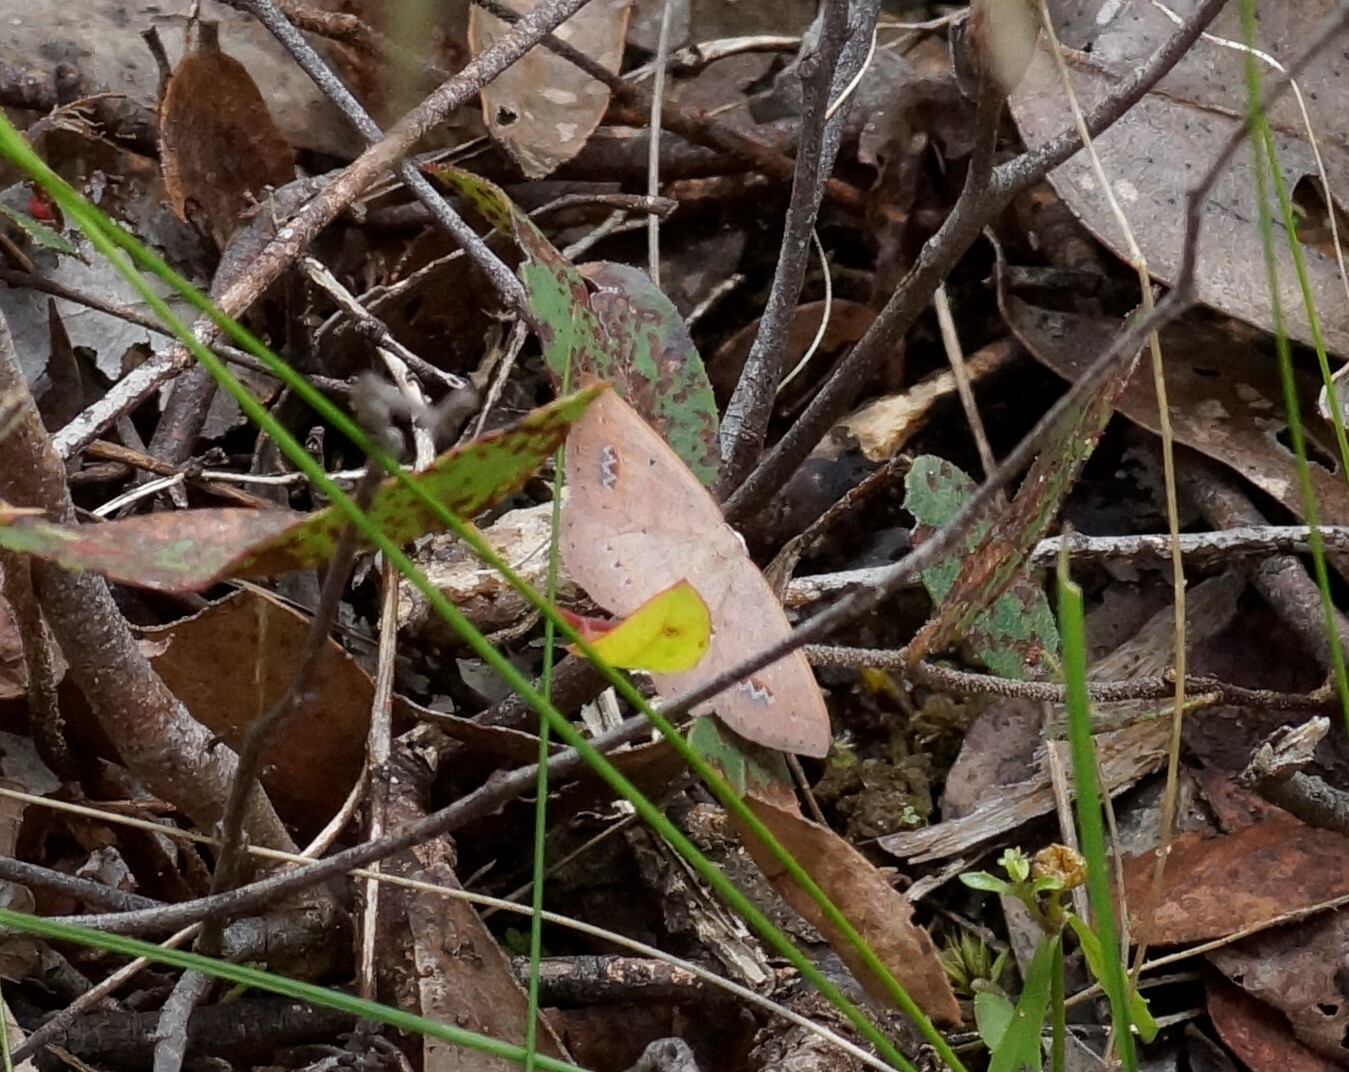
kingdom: Animalia
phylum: Arthropoda
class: Insecta
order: Lepidoptera
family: Geometridae
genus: Casbia
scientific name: Casbia oenias
